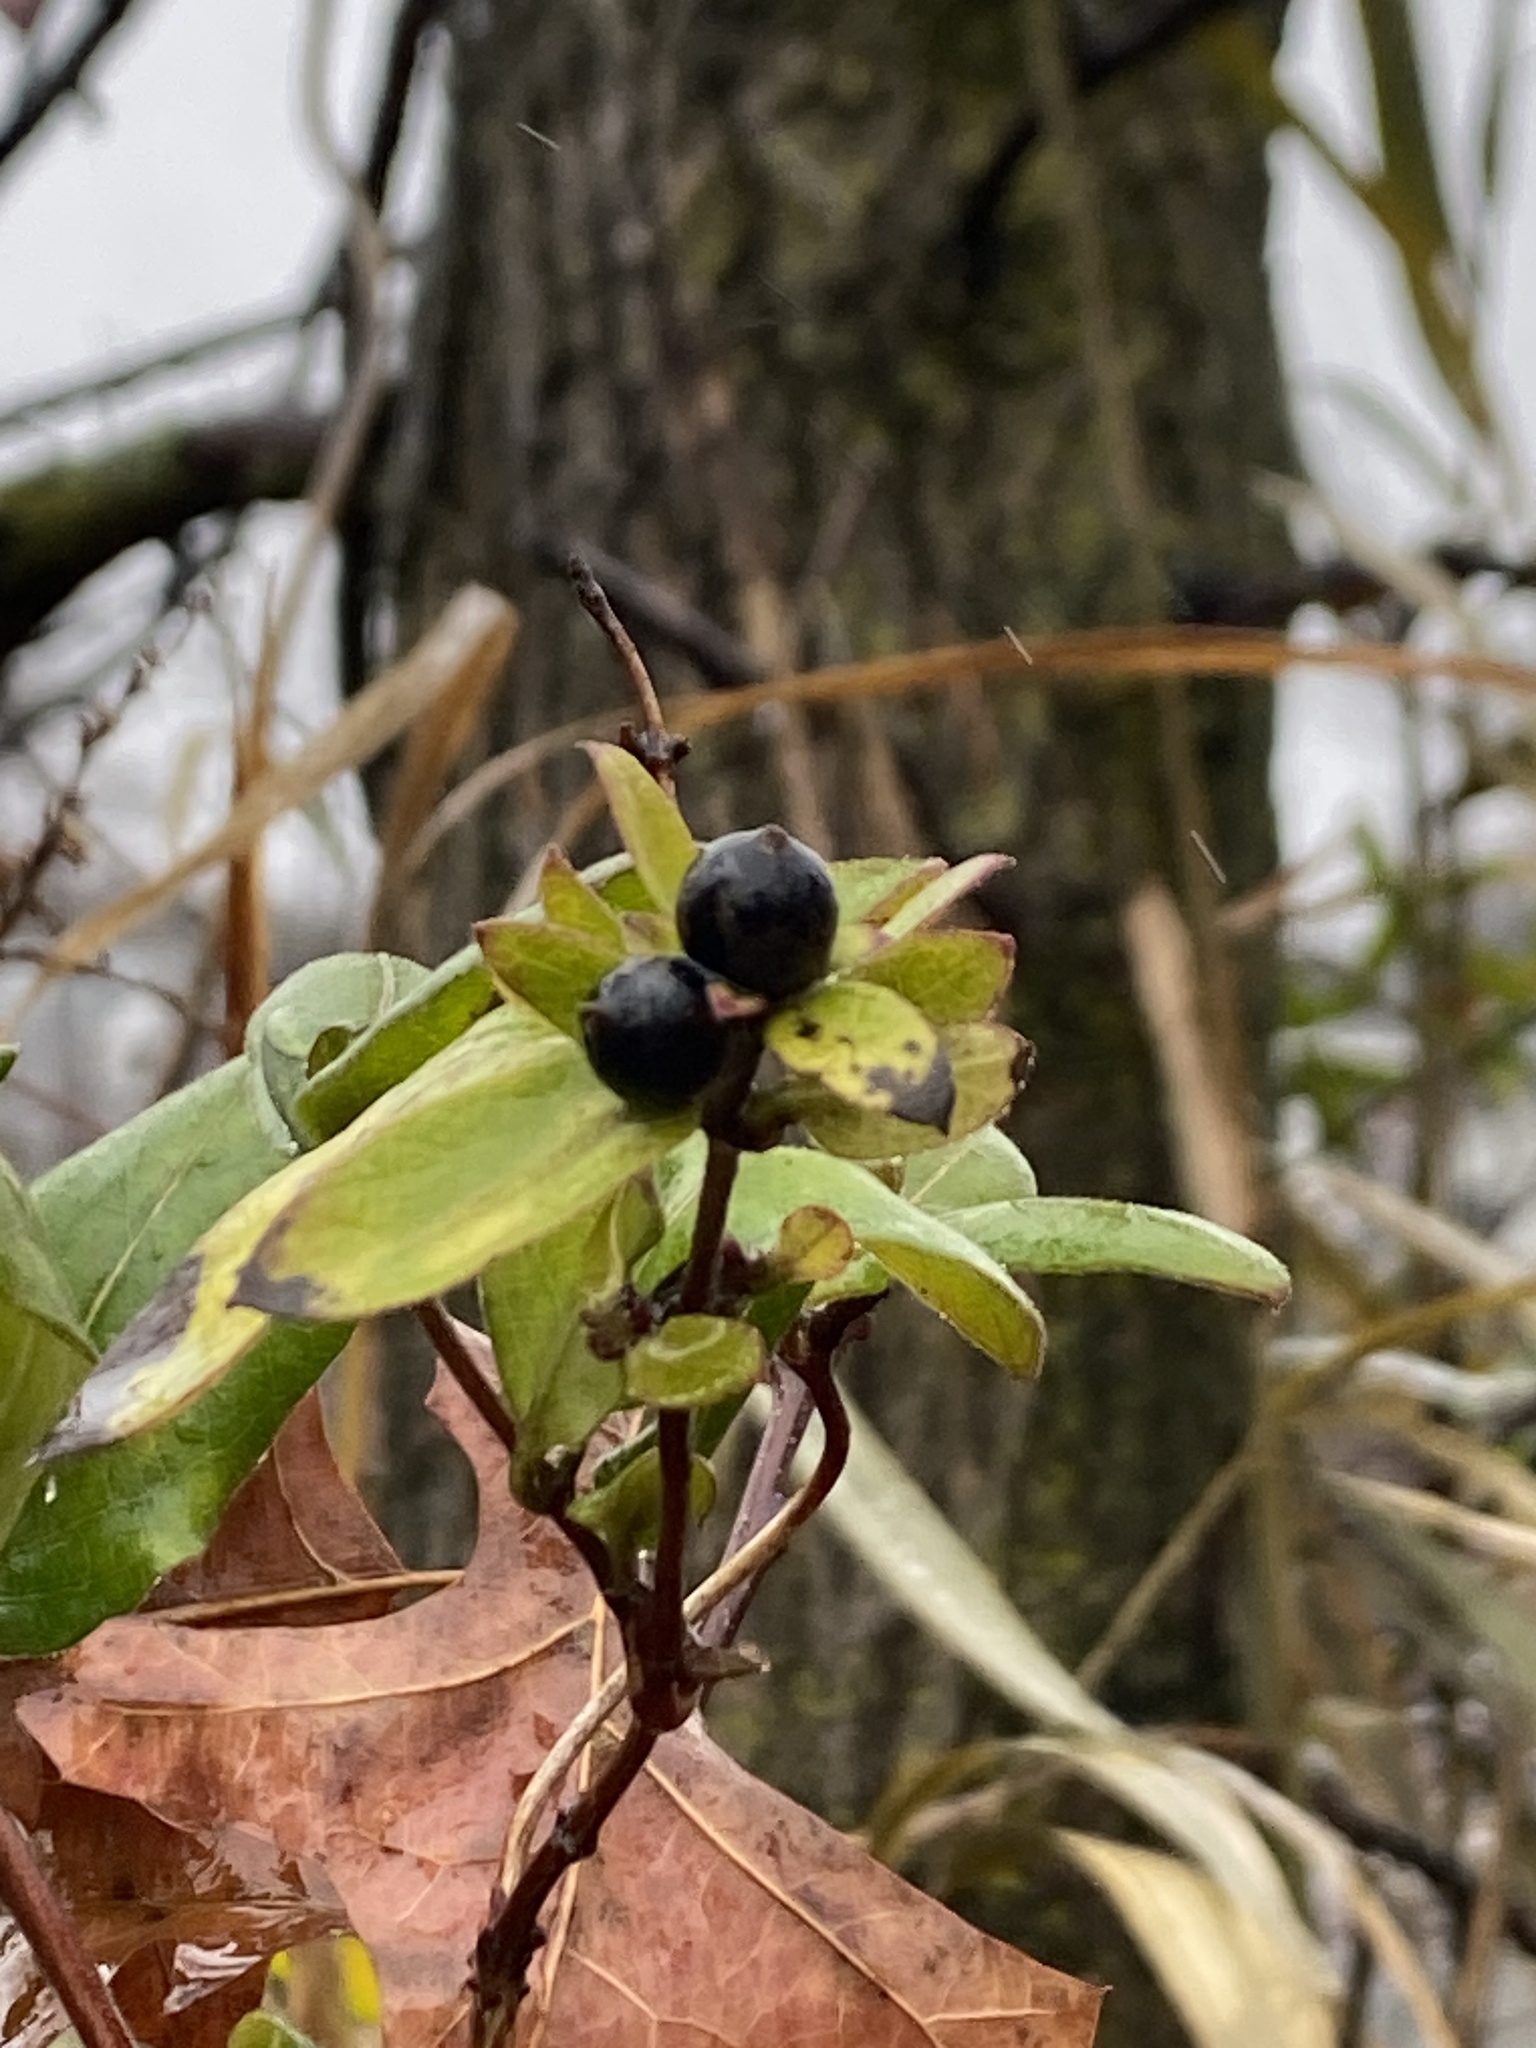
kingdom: Plantae
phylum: Tracheophyta
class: Magnoliopsida
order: Dipsacales
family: Caprifoliaceae
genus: Lonicera
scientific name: Lonicera japonica
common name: Japanese honeysuckle
